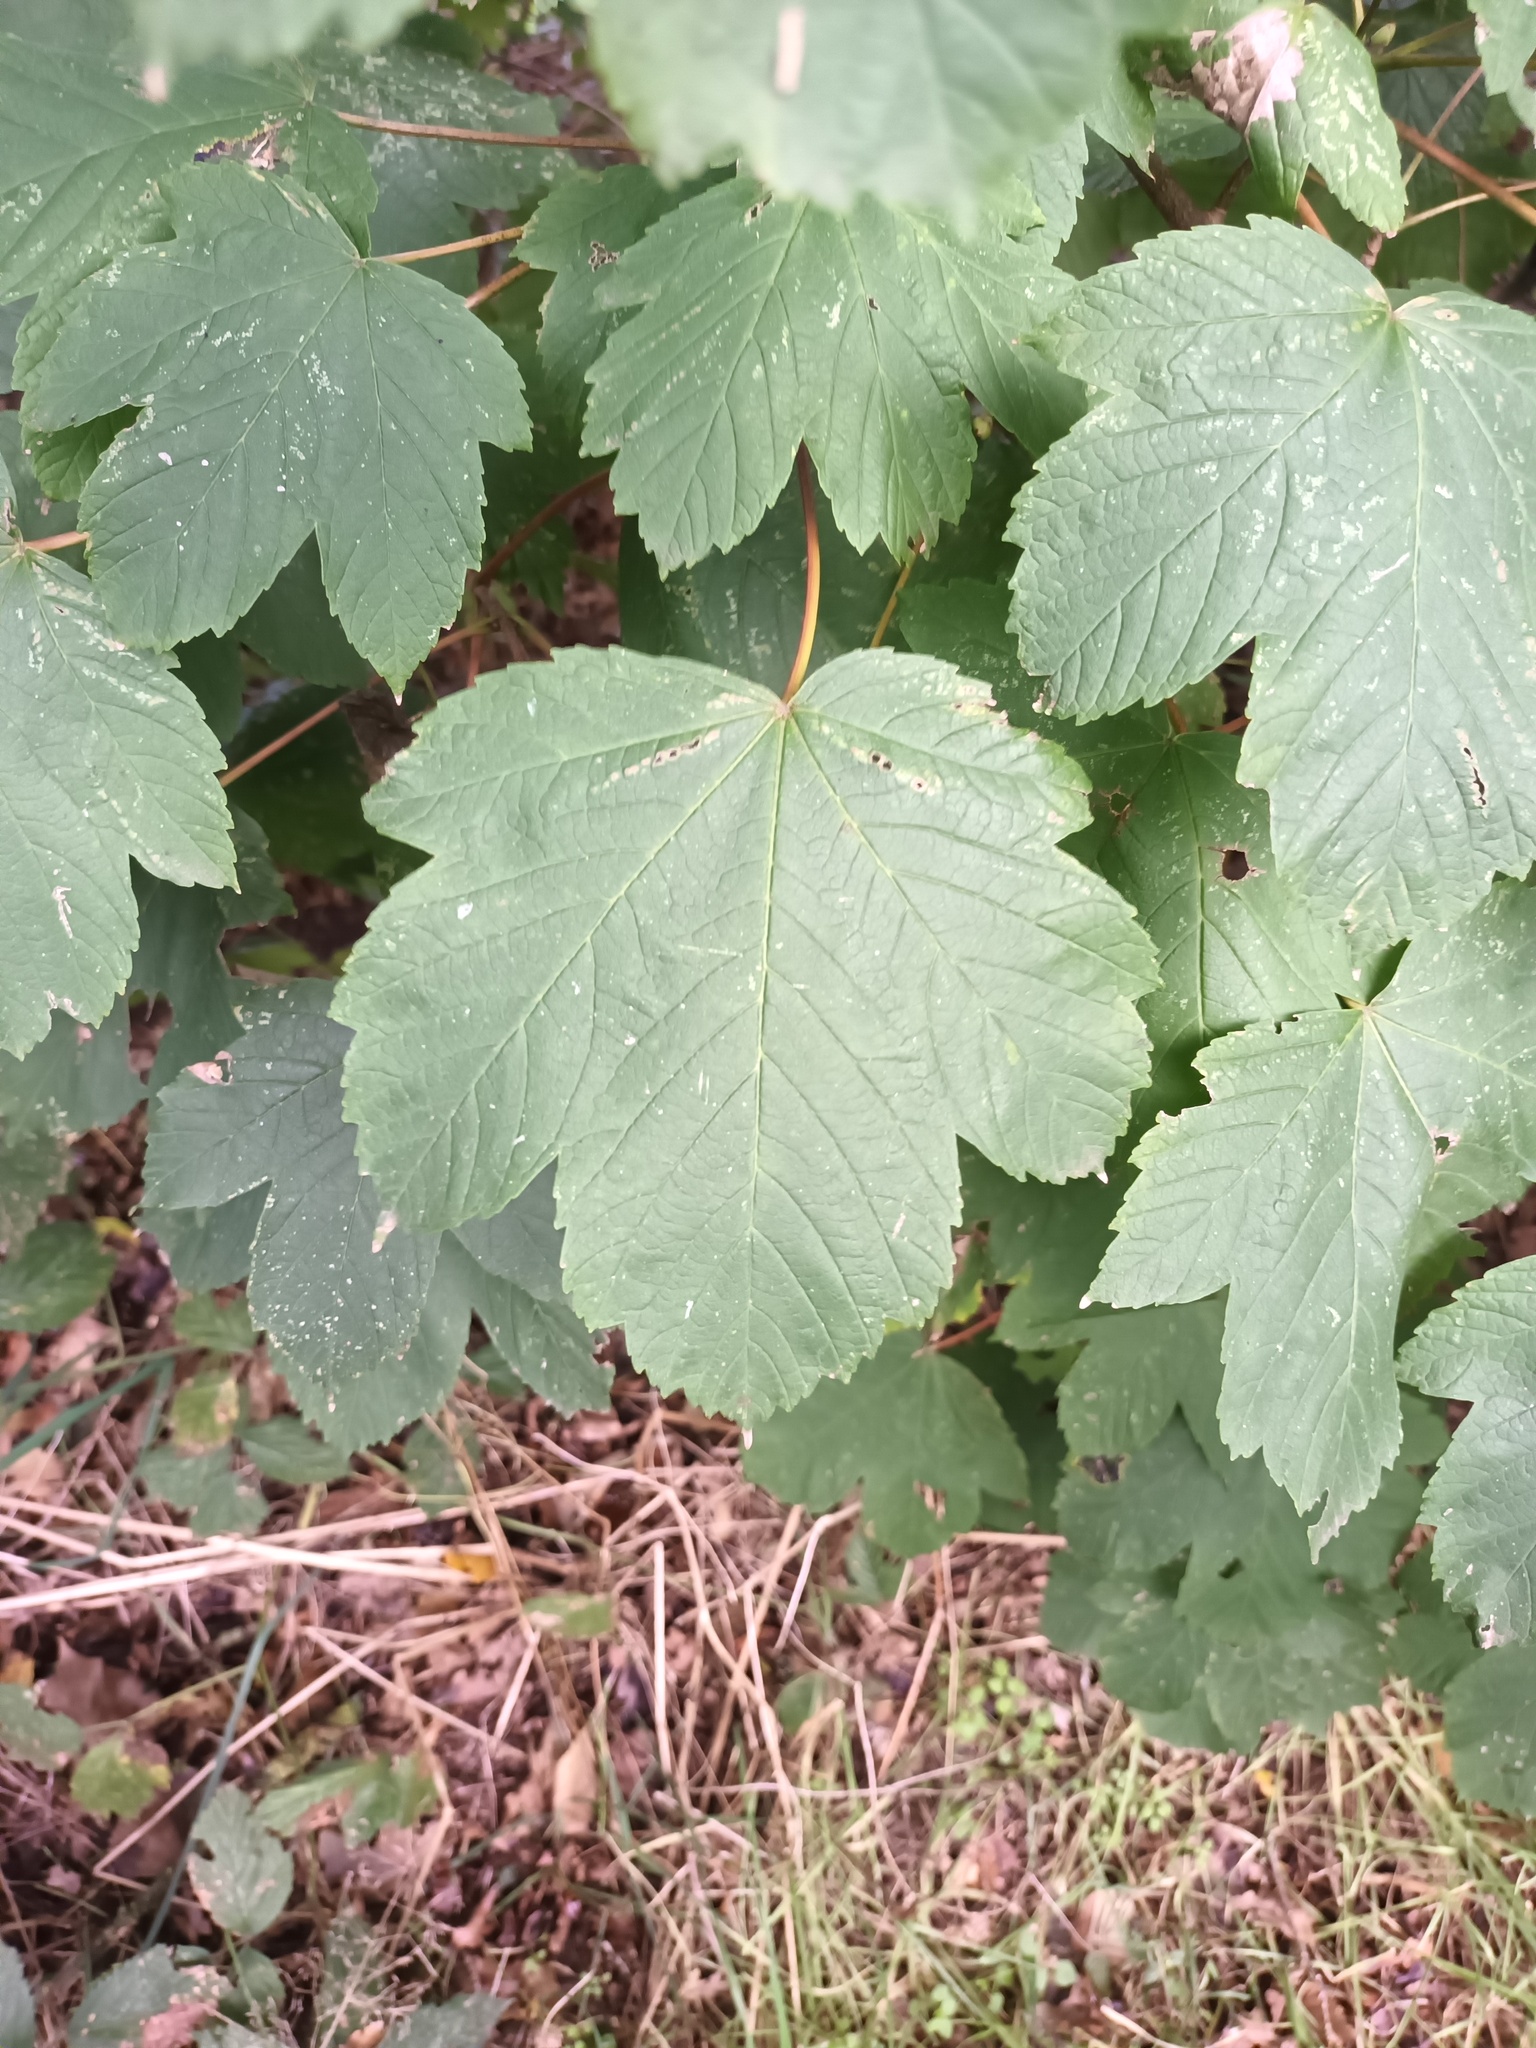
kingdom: Plantae
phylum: Tracheophyta
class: Magnoliopsida
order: Sapindales
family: Sapindaceae
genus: Acer
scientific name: Acer pseudoplatanus
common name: Sycamore
